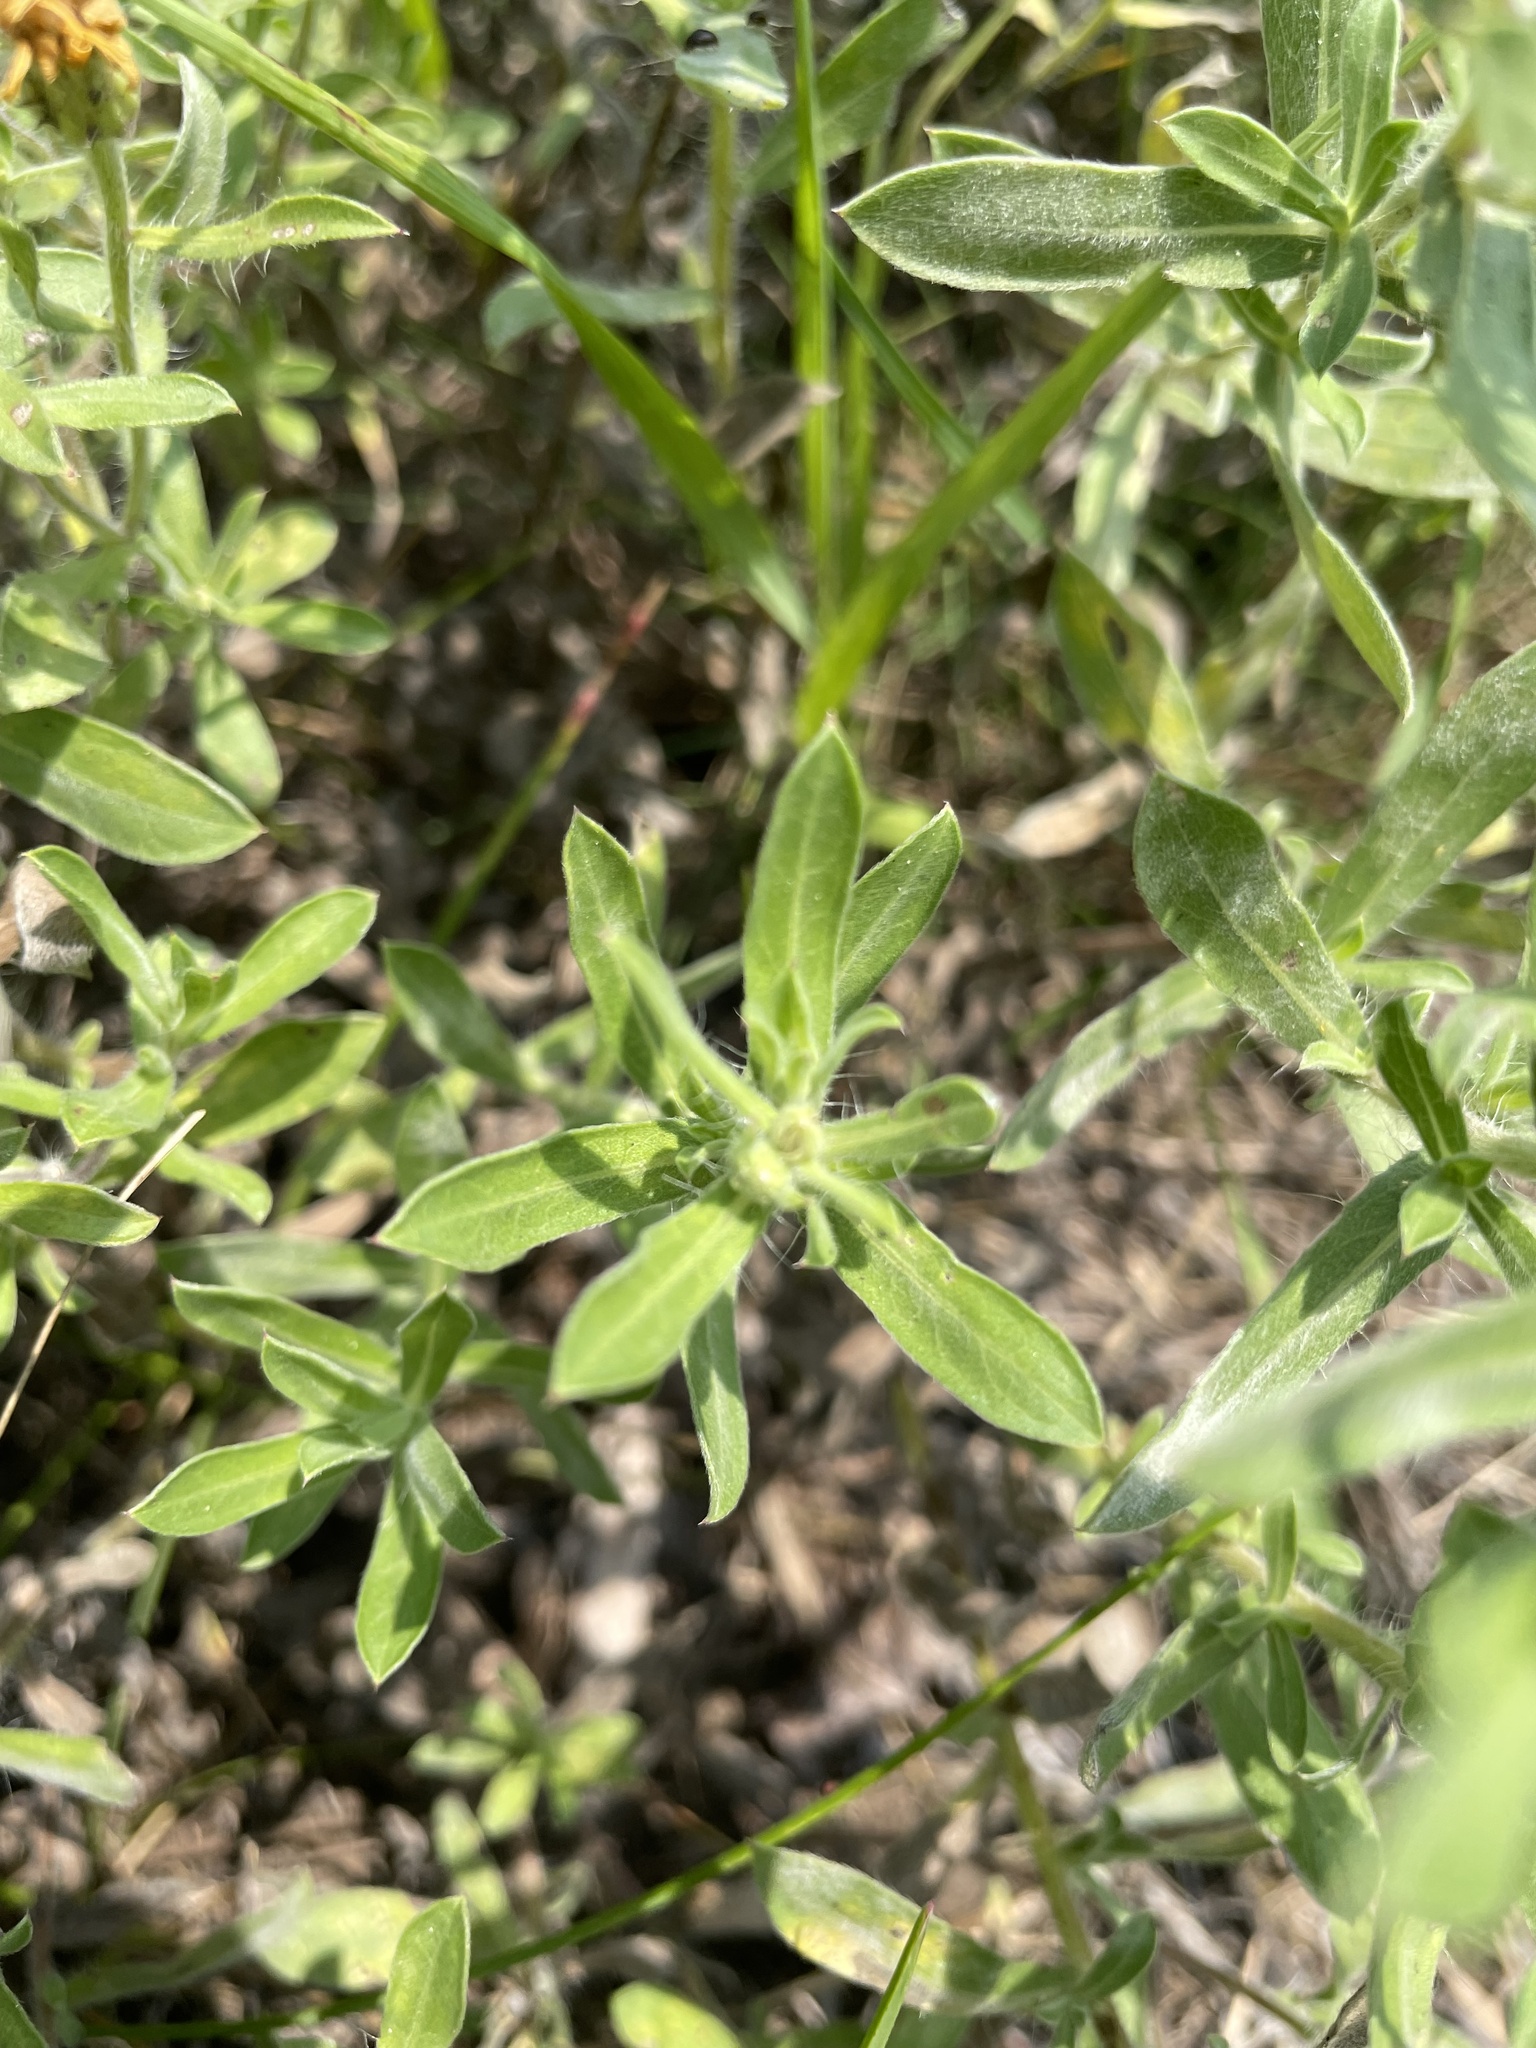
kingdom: Plantae
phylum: Tracheophyta
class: Magnoliopsida
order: Asterales
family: Asteraceae
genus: Heterotheca
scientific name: Heterotheca villosa
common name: Hairy false goldenaster
